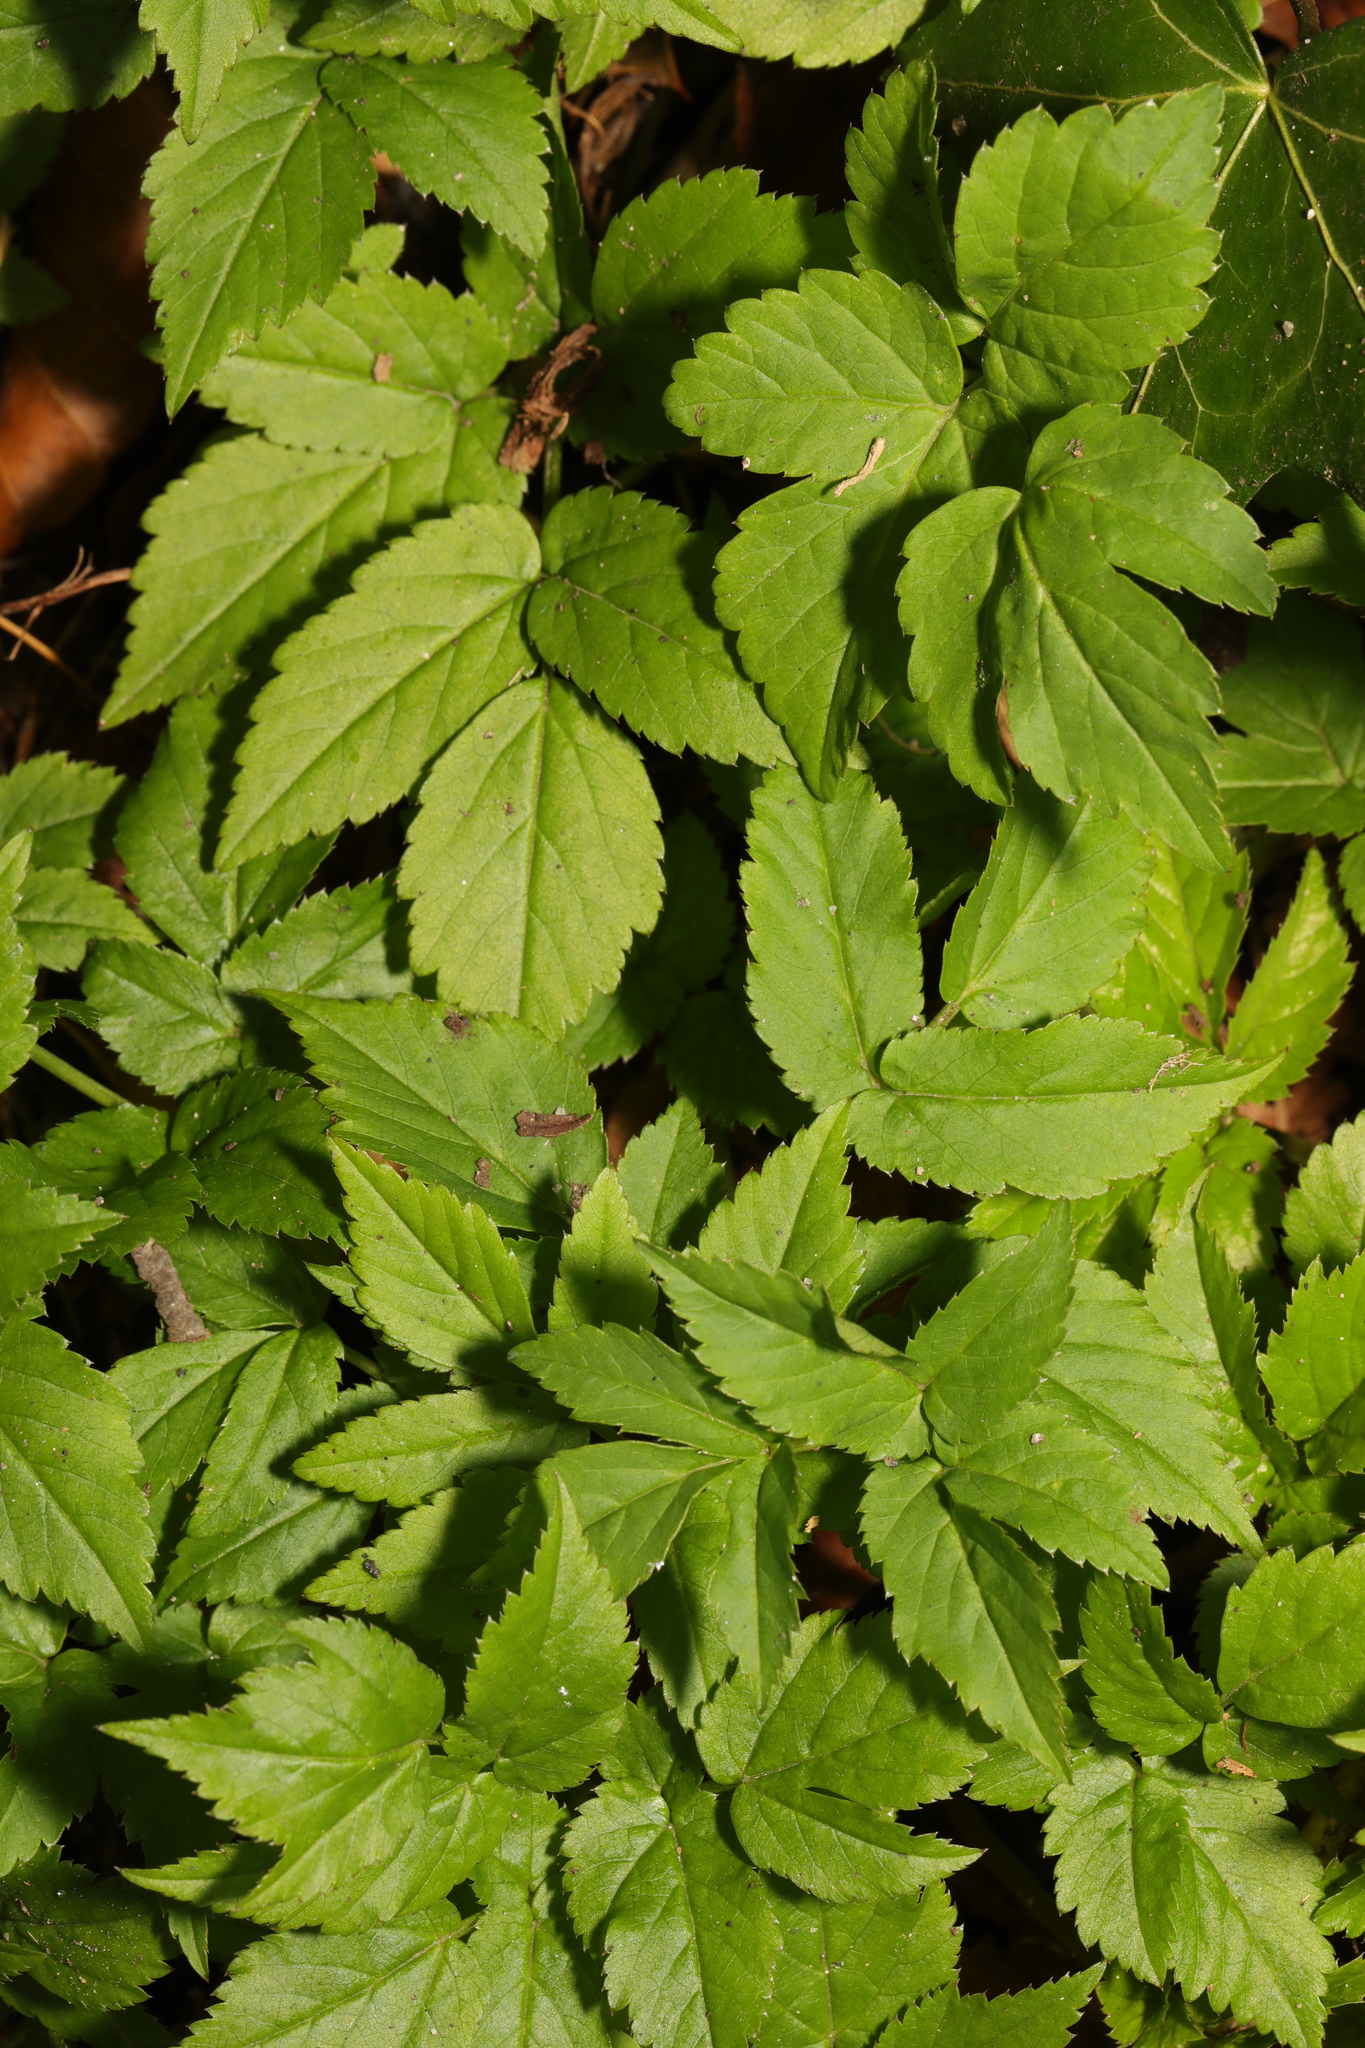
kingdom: Plantae
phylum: Tracheophyta
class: Magnoliopsida
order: Apiales
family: Apiaceae
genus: Aegopodium
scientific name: Aegopodium podagraria
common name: Ground-elder
